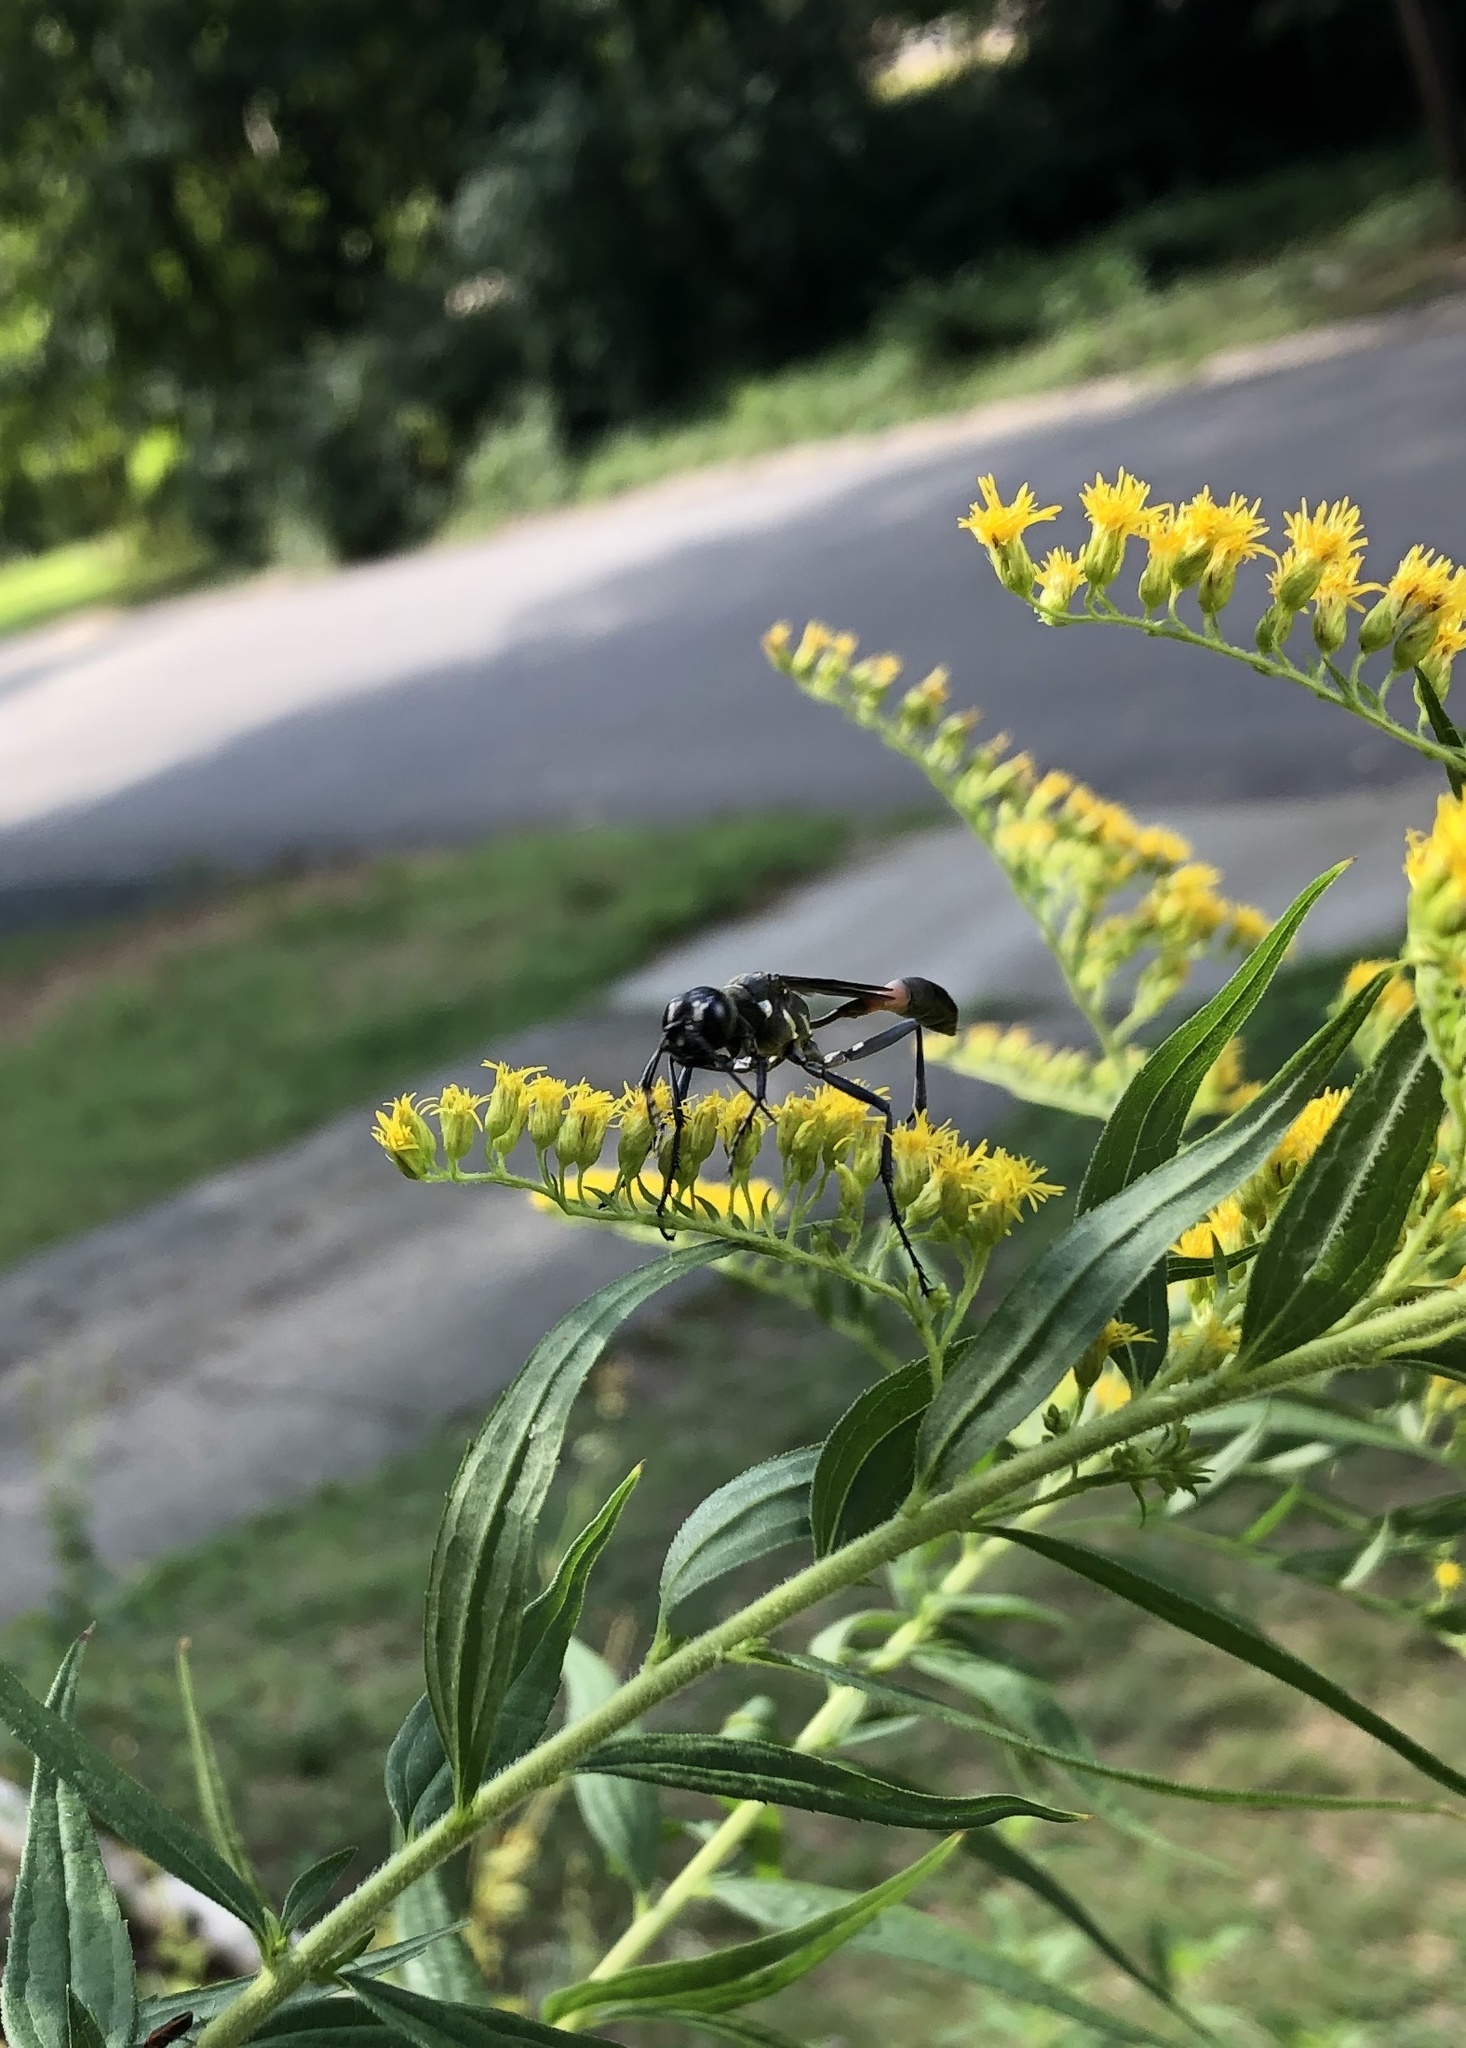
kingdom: Animalia
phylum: Arthropoda
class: Insecta
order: Hymenoptera
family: Sphecidae
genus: Ammophila
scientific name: Ammophila procera
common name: Common thread-waisted wasp
